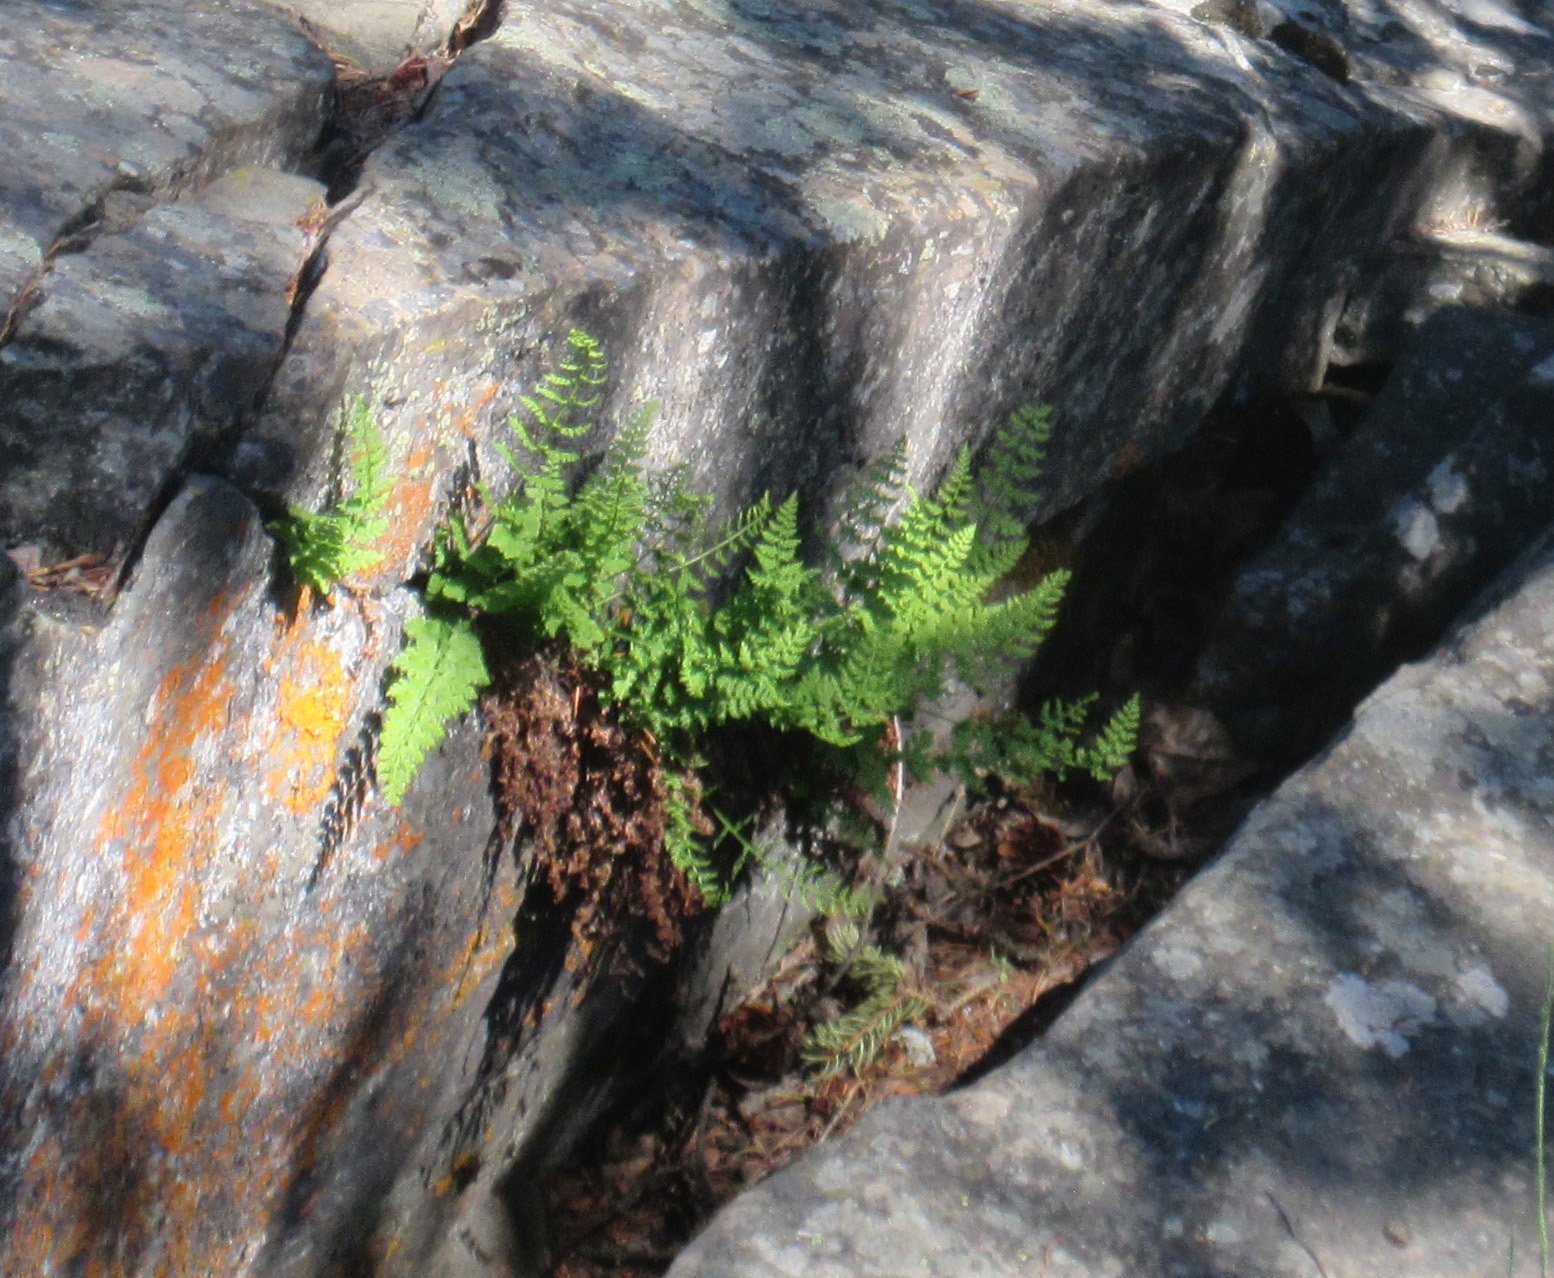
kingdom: Plantae
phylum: Tracheophyta
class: Polypodiopsida
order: Polypodiales
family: Cystopteridaceae
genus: Cystopteris
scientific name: Cystopteris fragilis
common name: Brittle bladder fern
